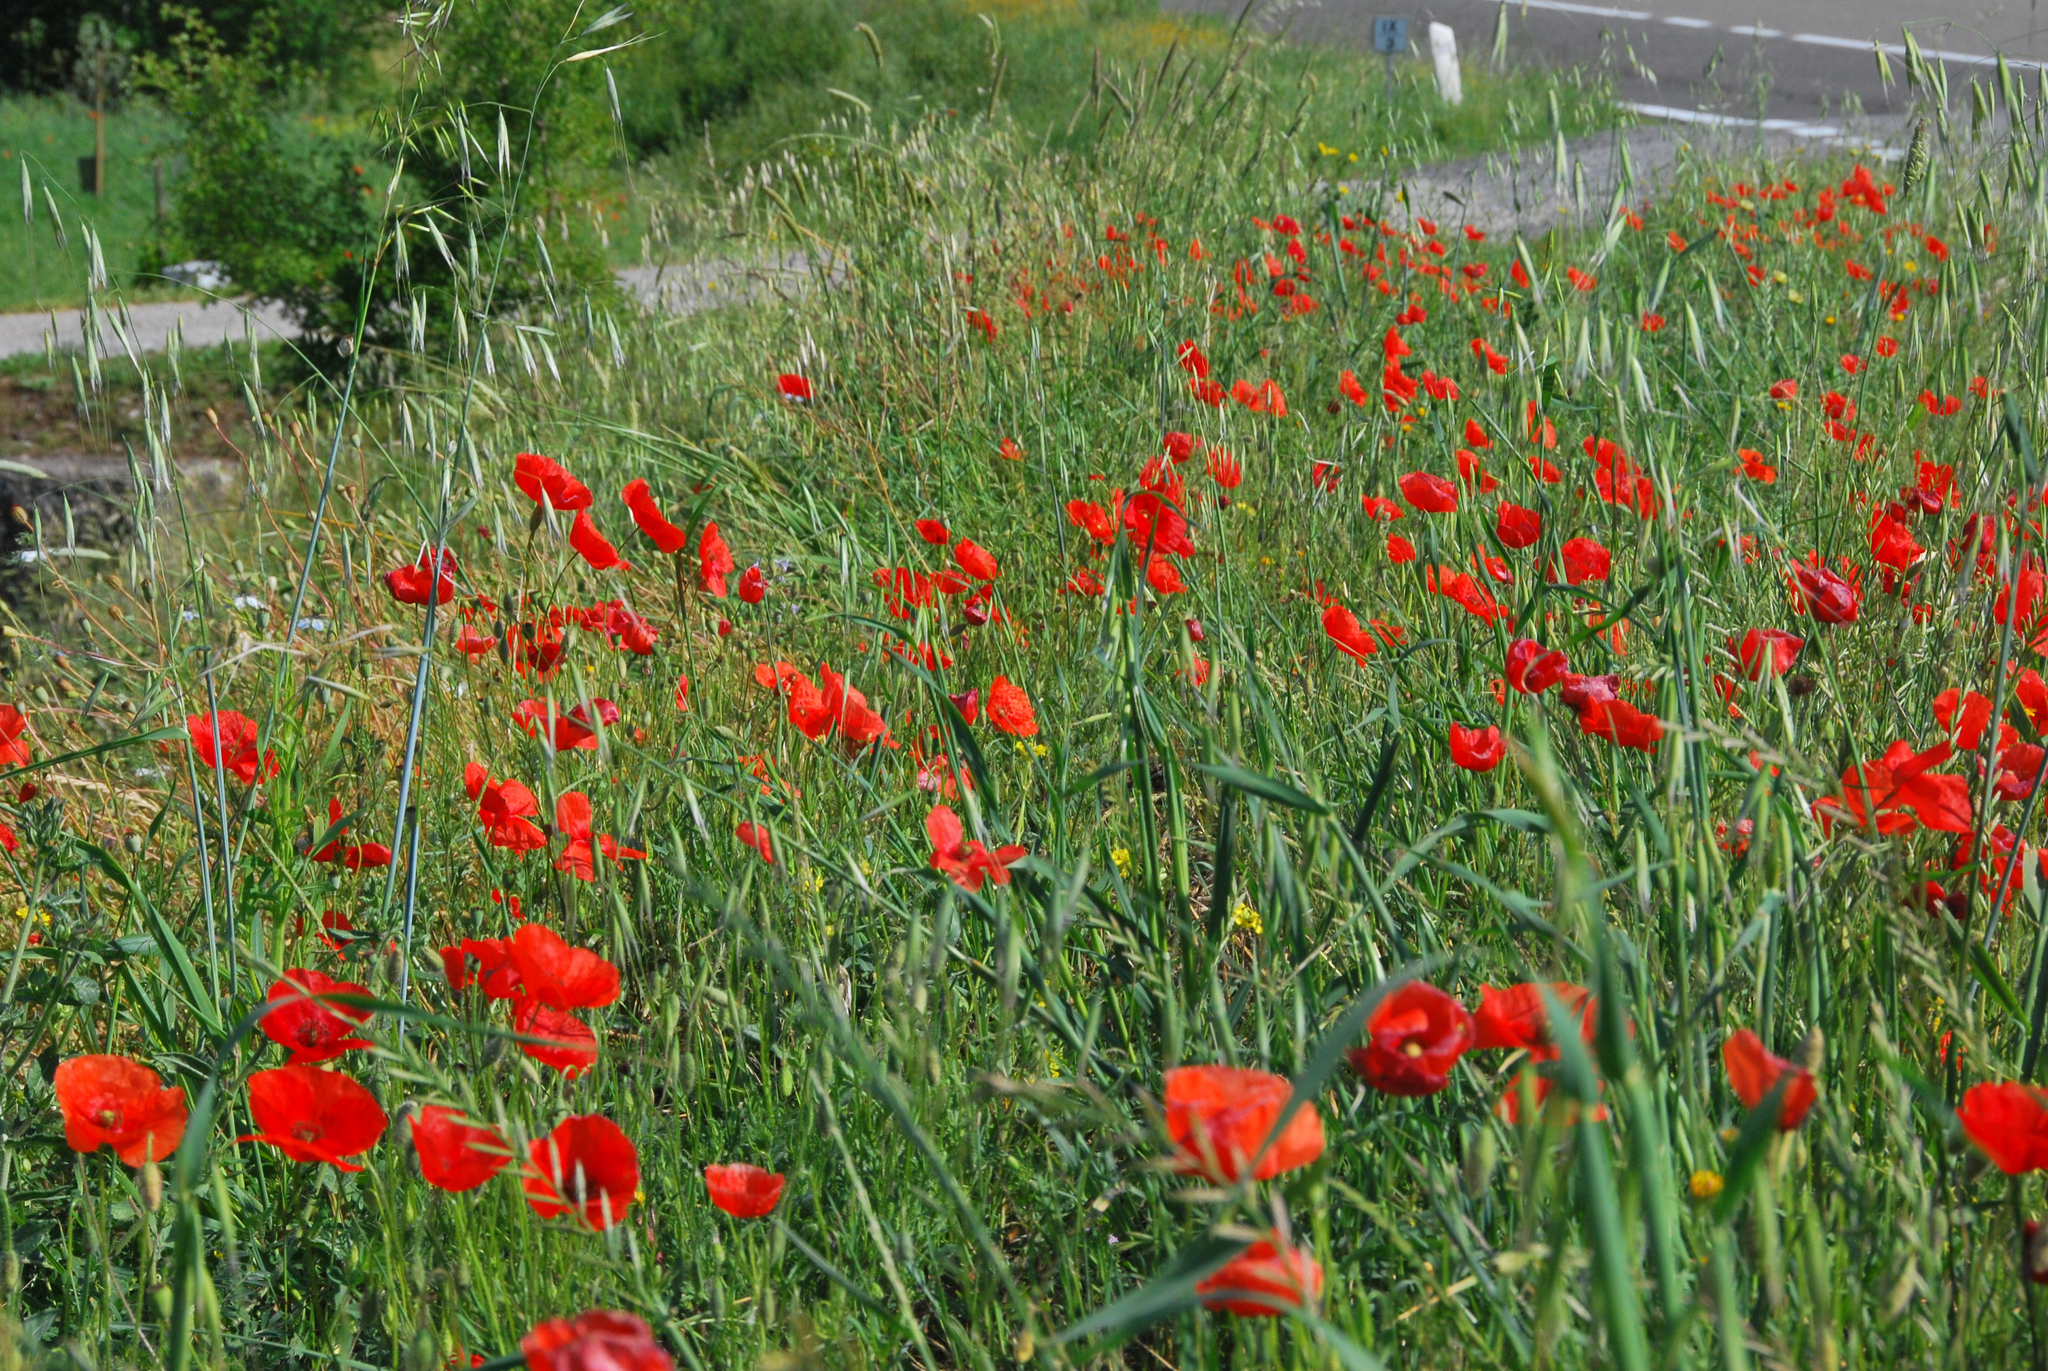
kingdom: Plantae
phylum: Tracheophyta
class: Magnoliopsida
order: Ranunculales
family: Papaveraceae
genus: Papaver
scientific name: Papaver rhoeas
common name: Corn poppy
